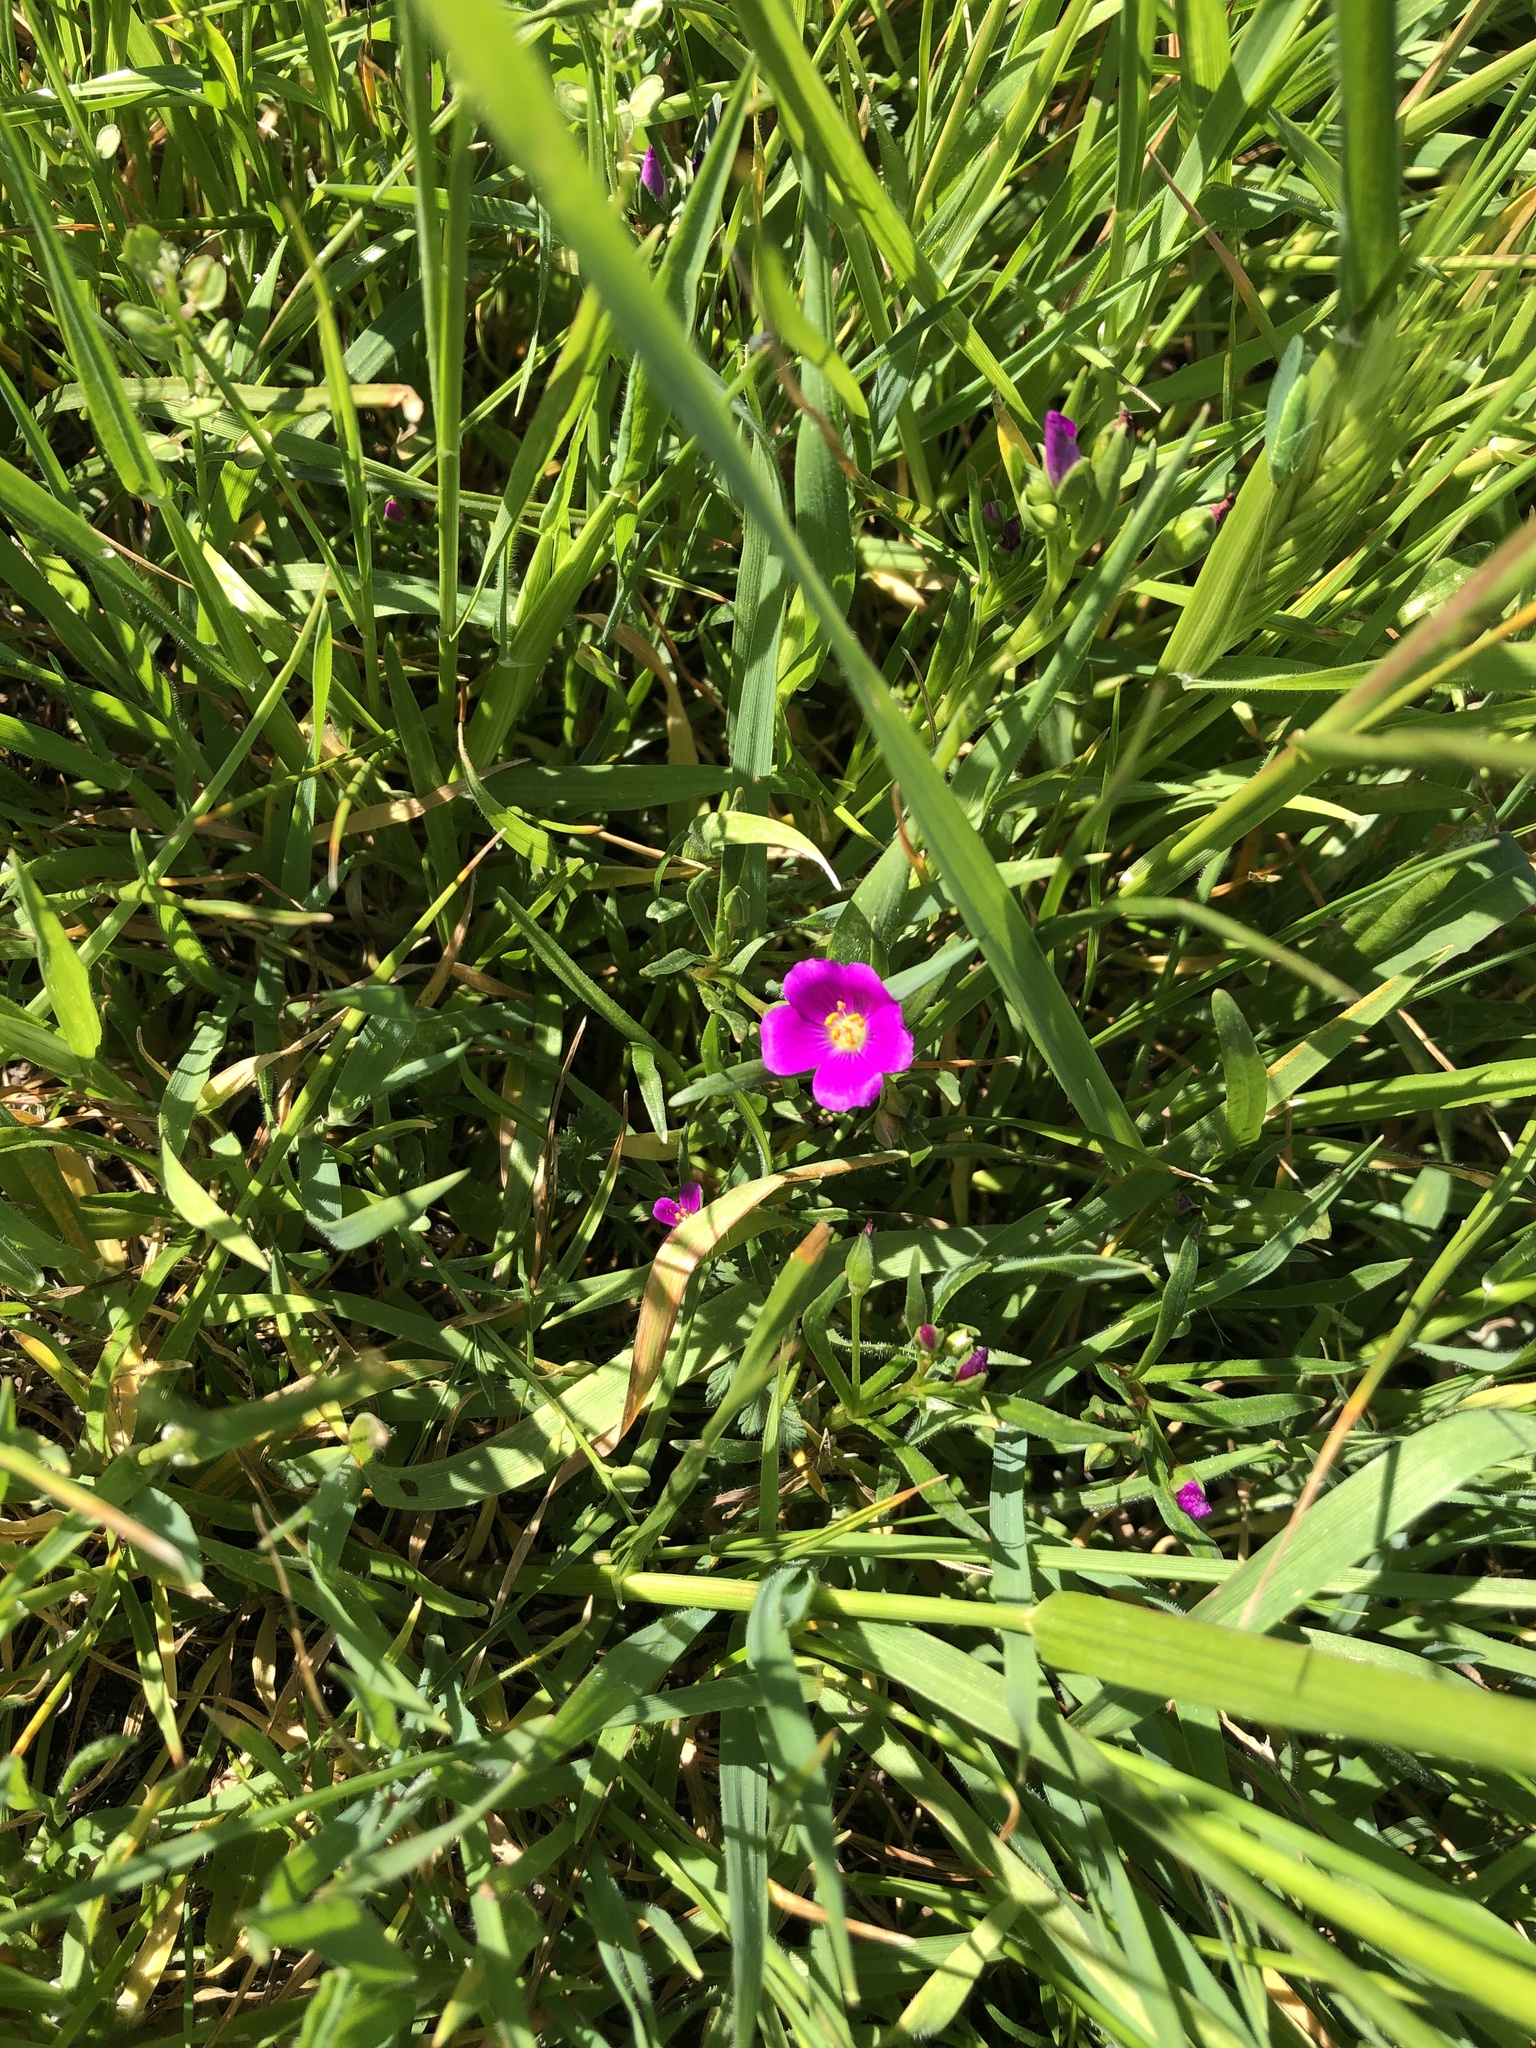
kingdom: Plantae
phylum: Tracheophyta
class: Magnoliopsida
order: Caryophyllales
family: Montiaceae
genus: Calandrinia
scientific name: Calandrinia menziesii
